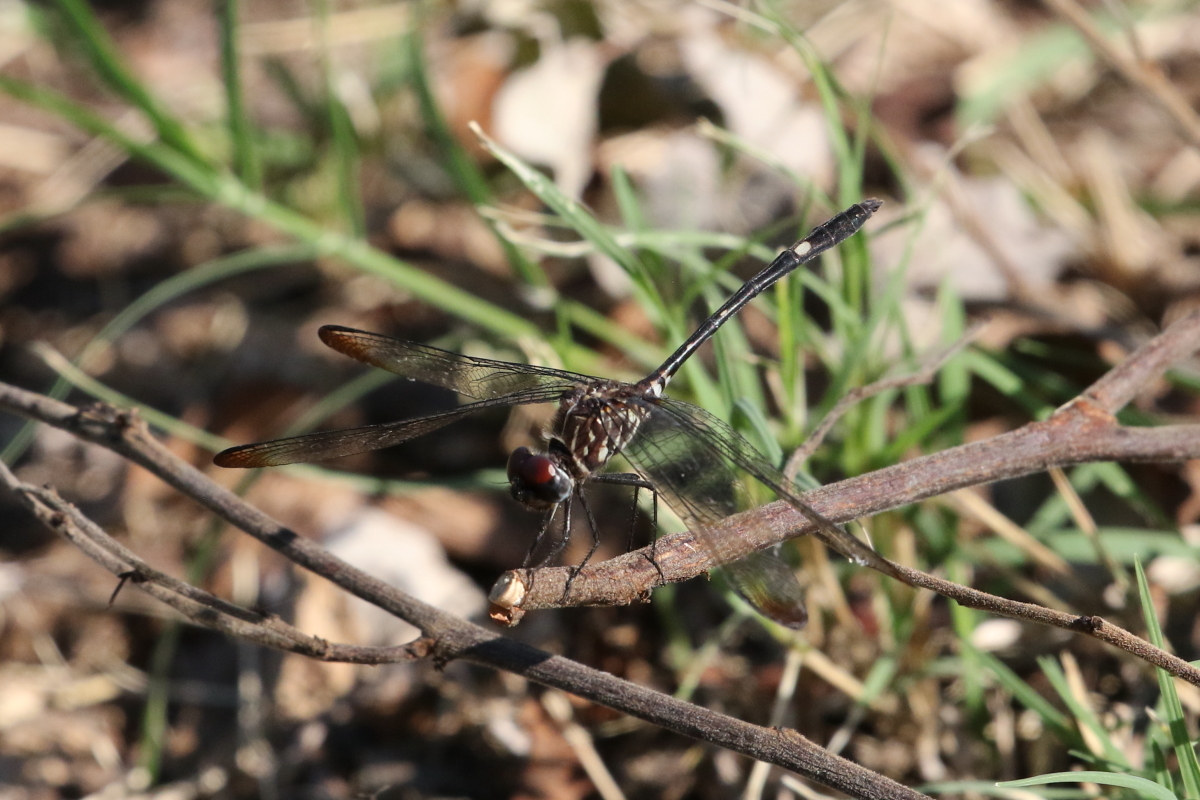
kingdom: Animalia
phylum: Arthropoda
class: Insecta
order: Odonata
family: Libellulidae
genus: Dythemis
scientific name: Dythemis velox
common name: Swift setwing
